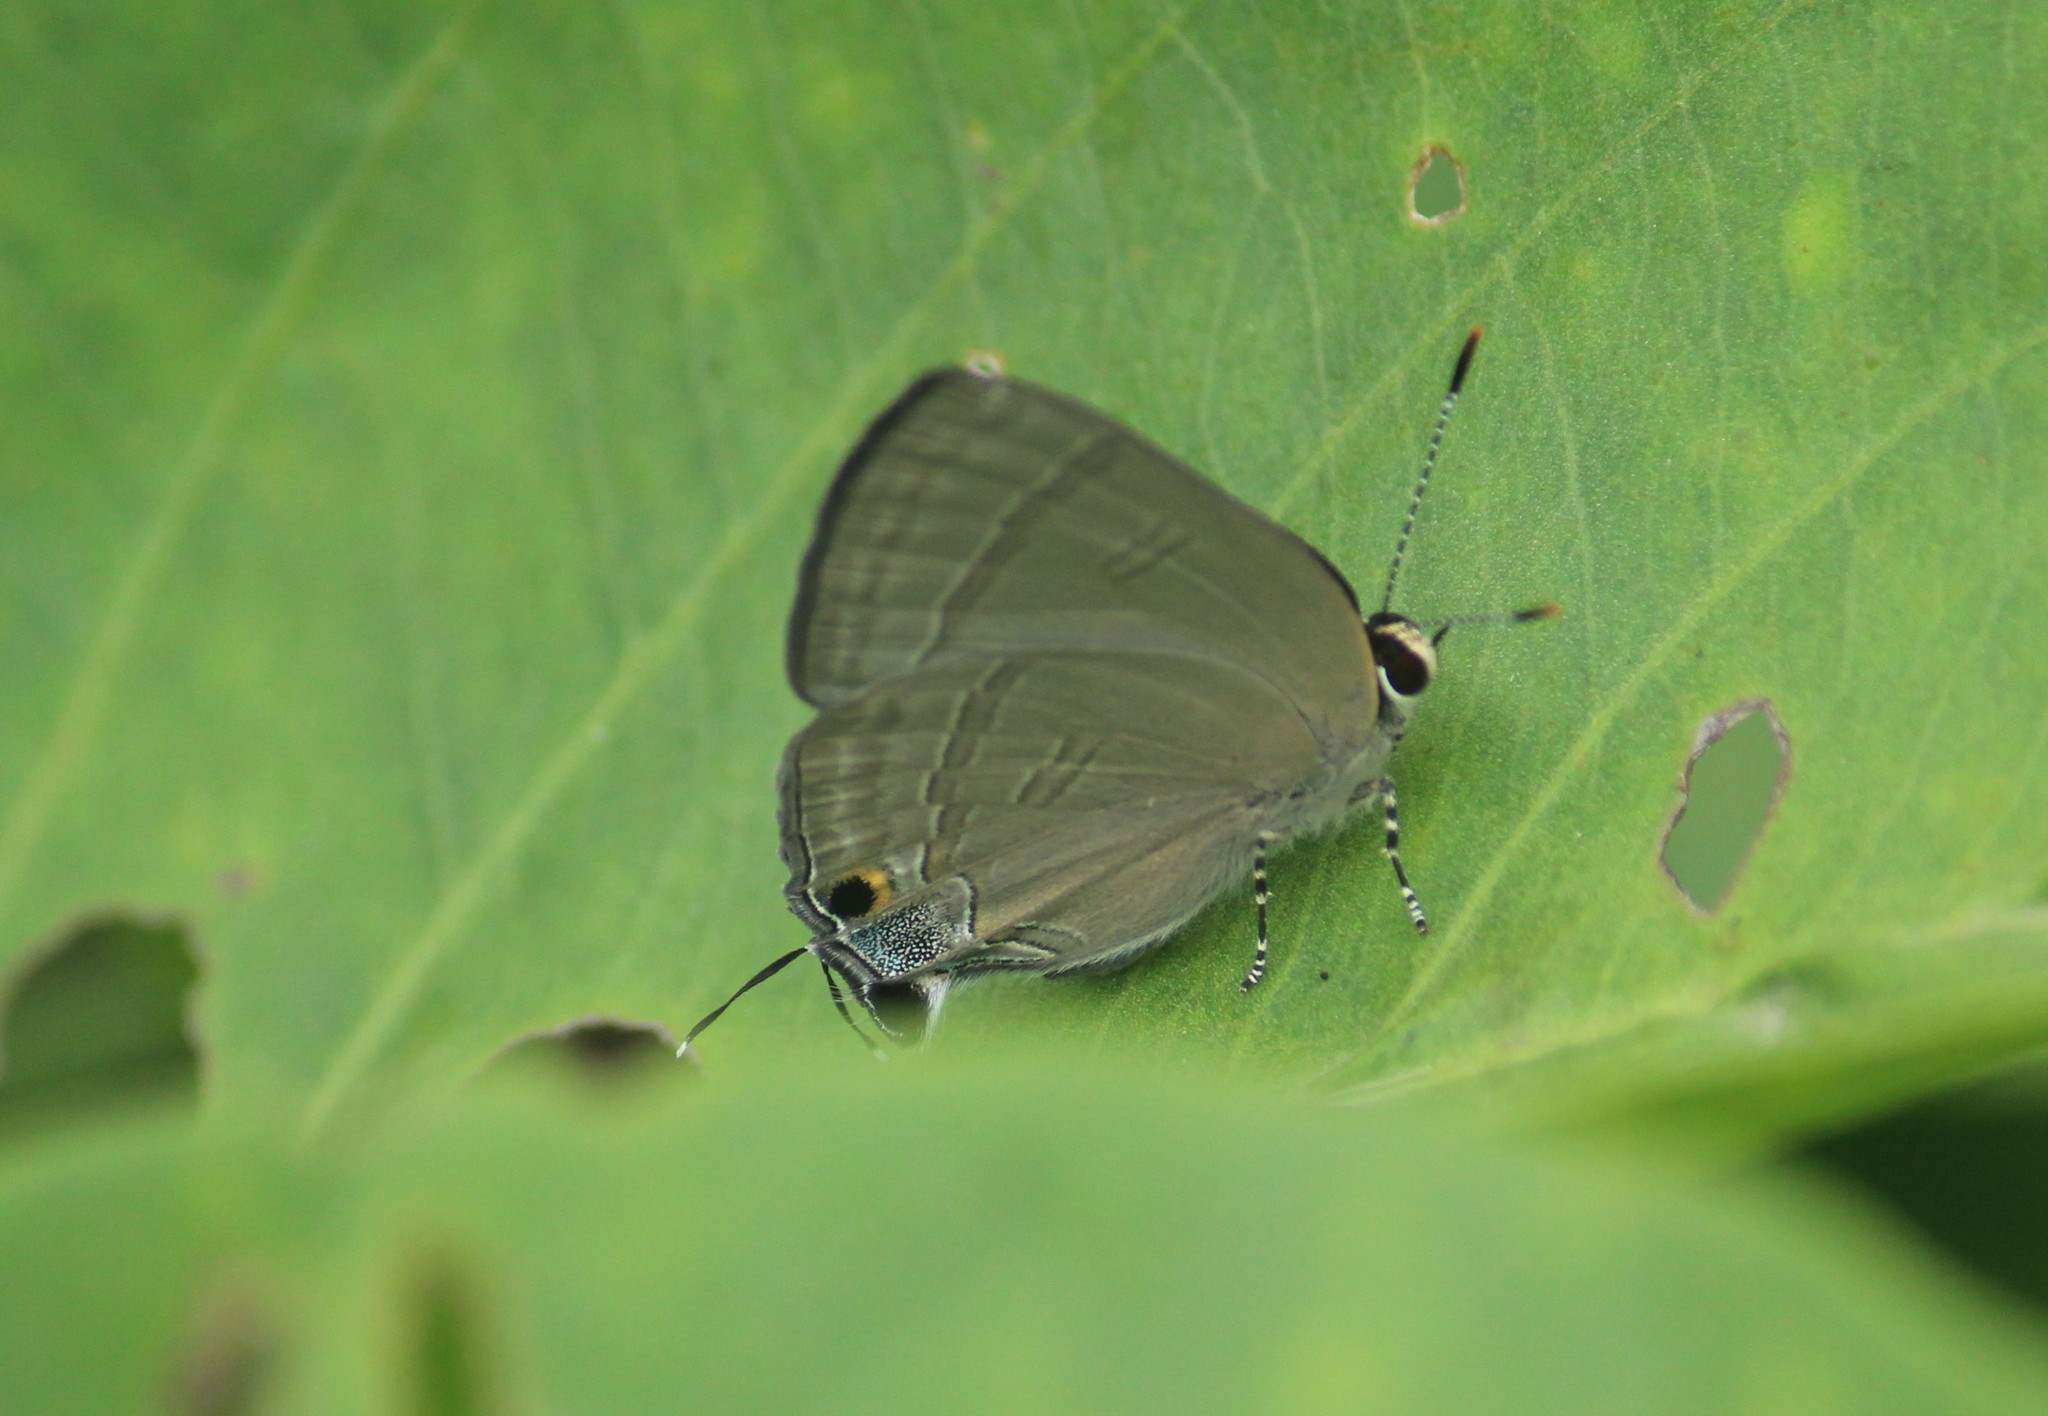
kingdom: Animalia
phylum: Arthropoda
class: Insecta
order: Lepidoptera
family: Lycaenidae
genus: Rapala
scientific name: Rapala manea
